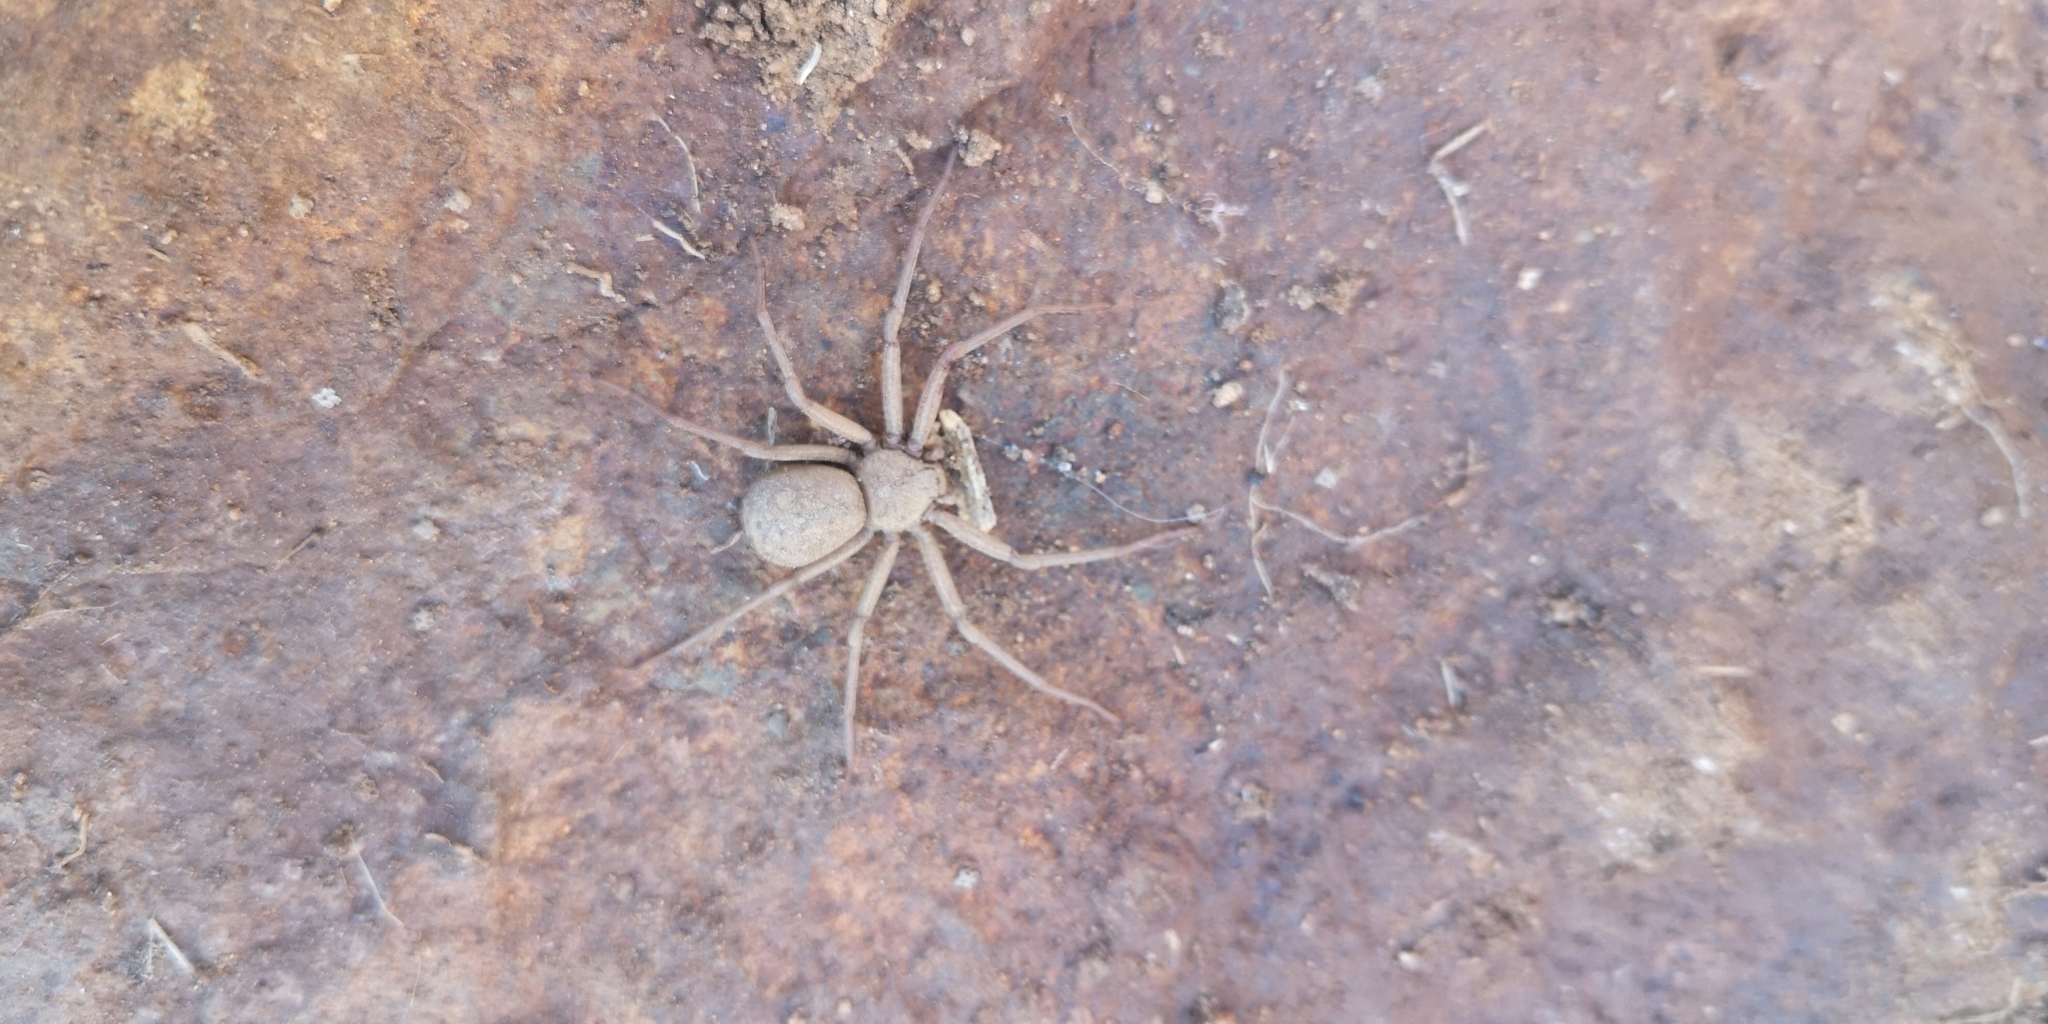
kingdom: Animalia
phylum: Arthropoda
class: Arachnida
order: Araneae
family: Sicariidae
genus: Sicarius
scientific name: Sicarius thomisoides
